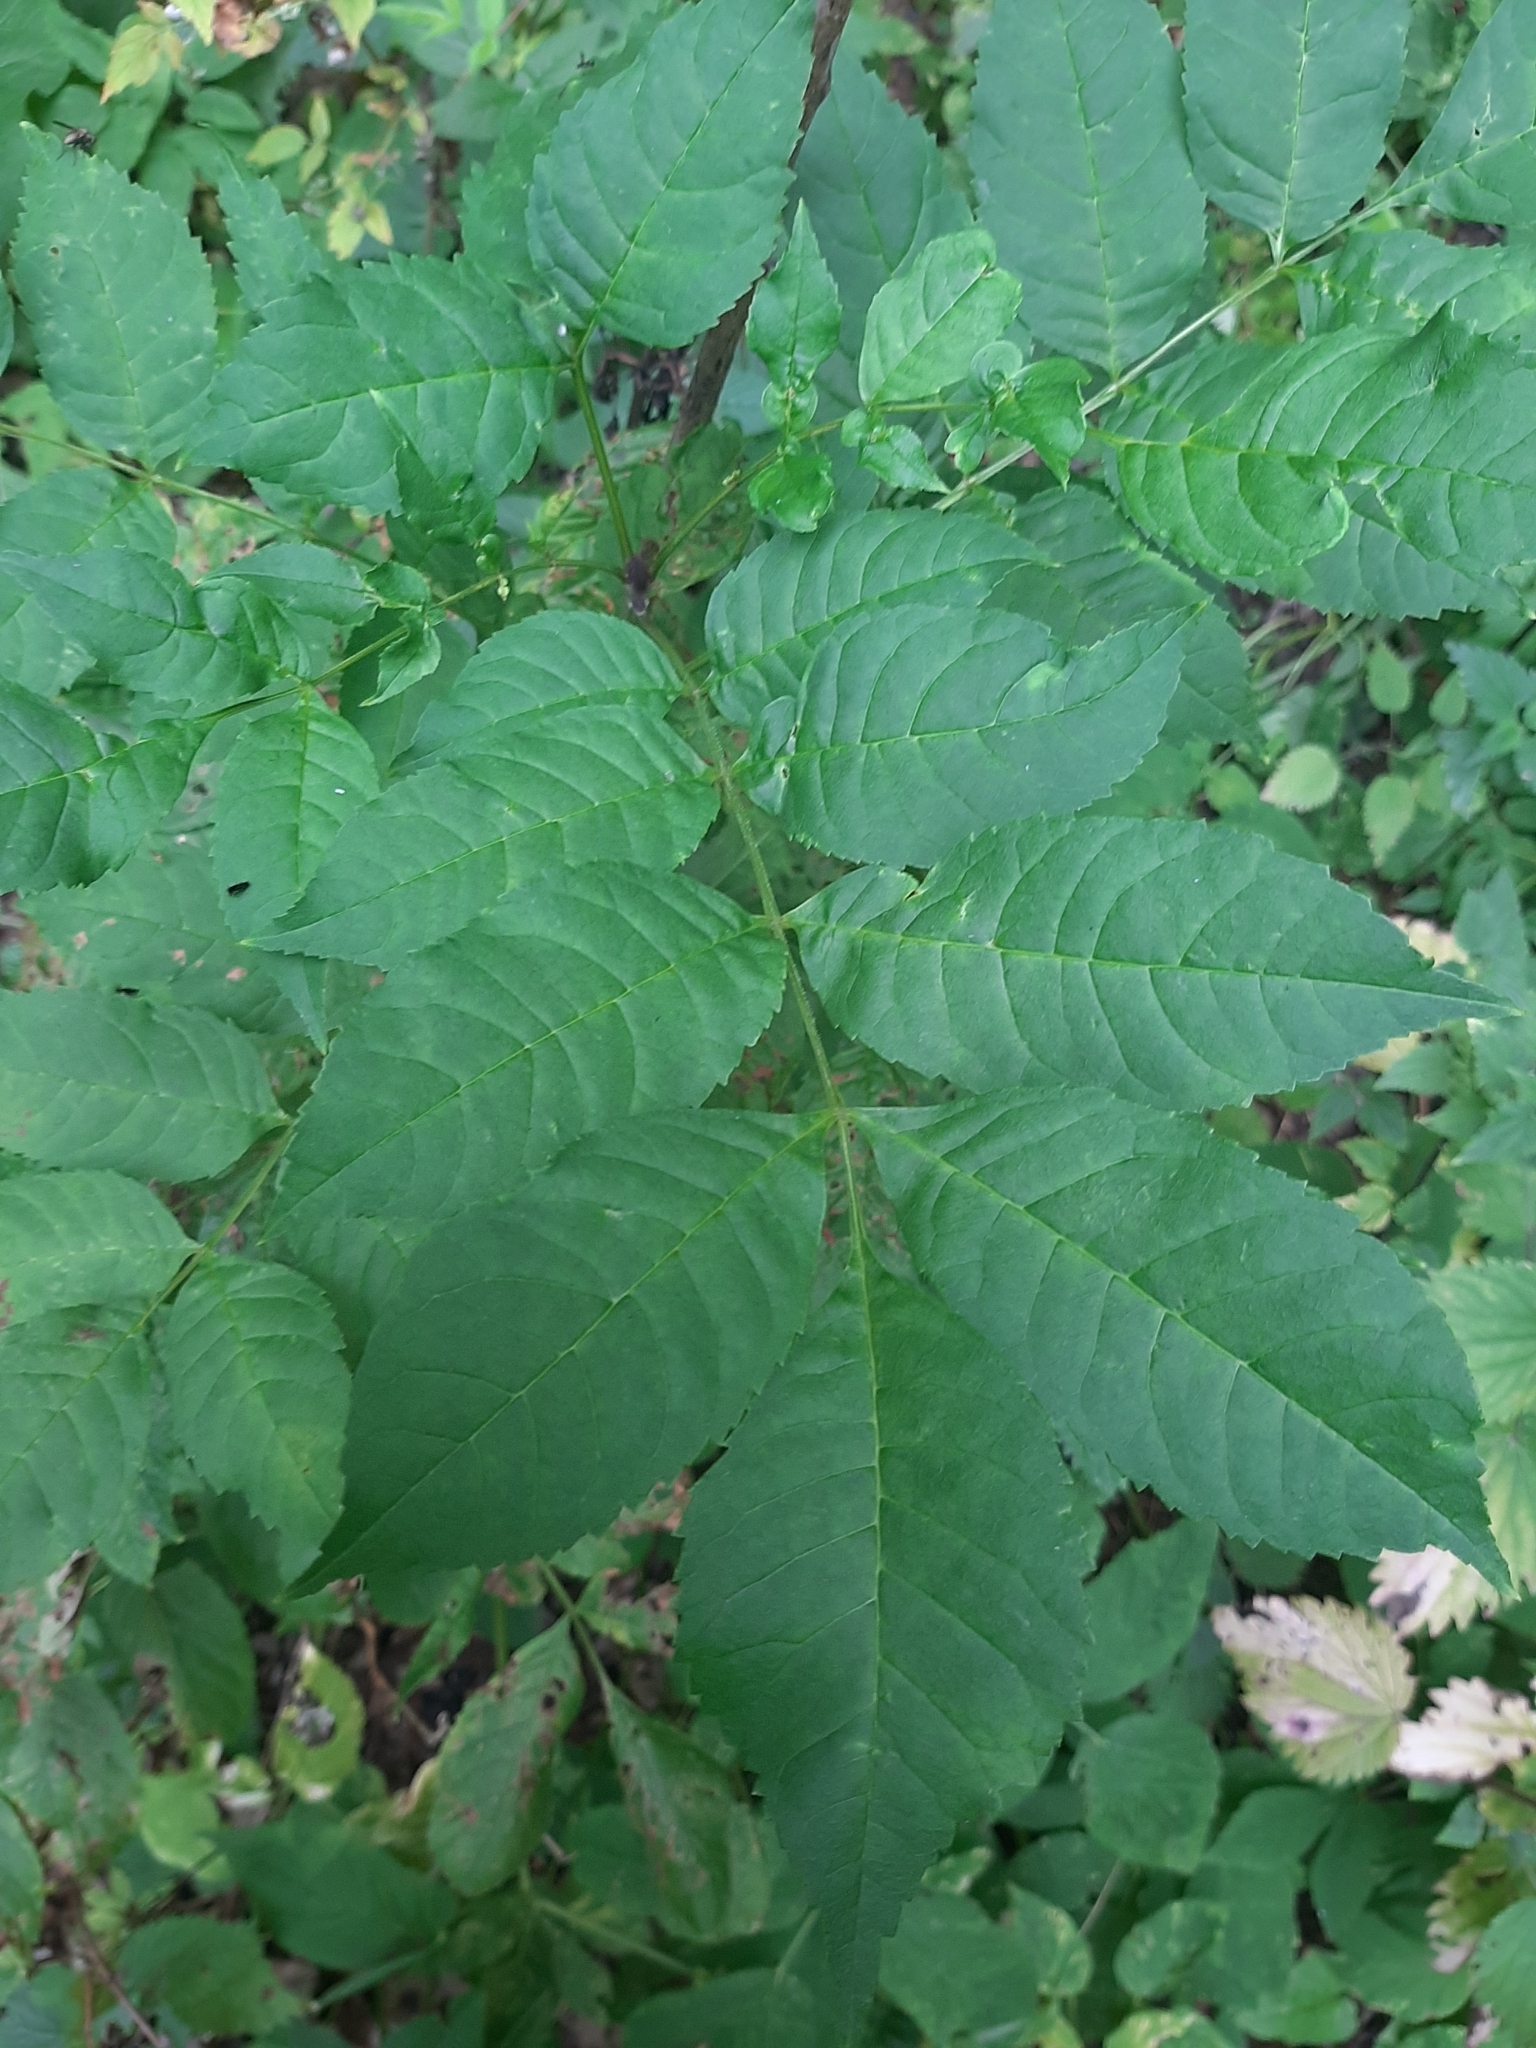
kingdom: Plantae
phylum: Tracheophyta
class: Magnoliopsida
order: Lamiales
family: Oleaceae
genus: Fraxinus
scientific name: Fraxinus excelsior
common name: European ash
